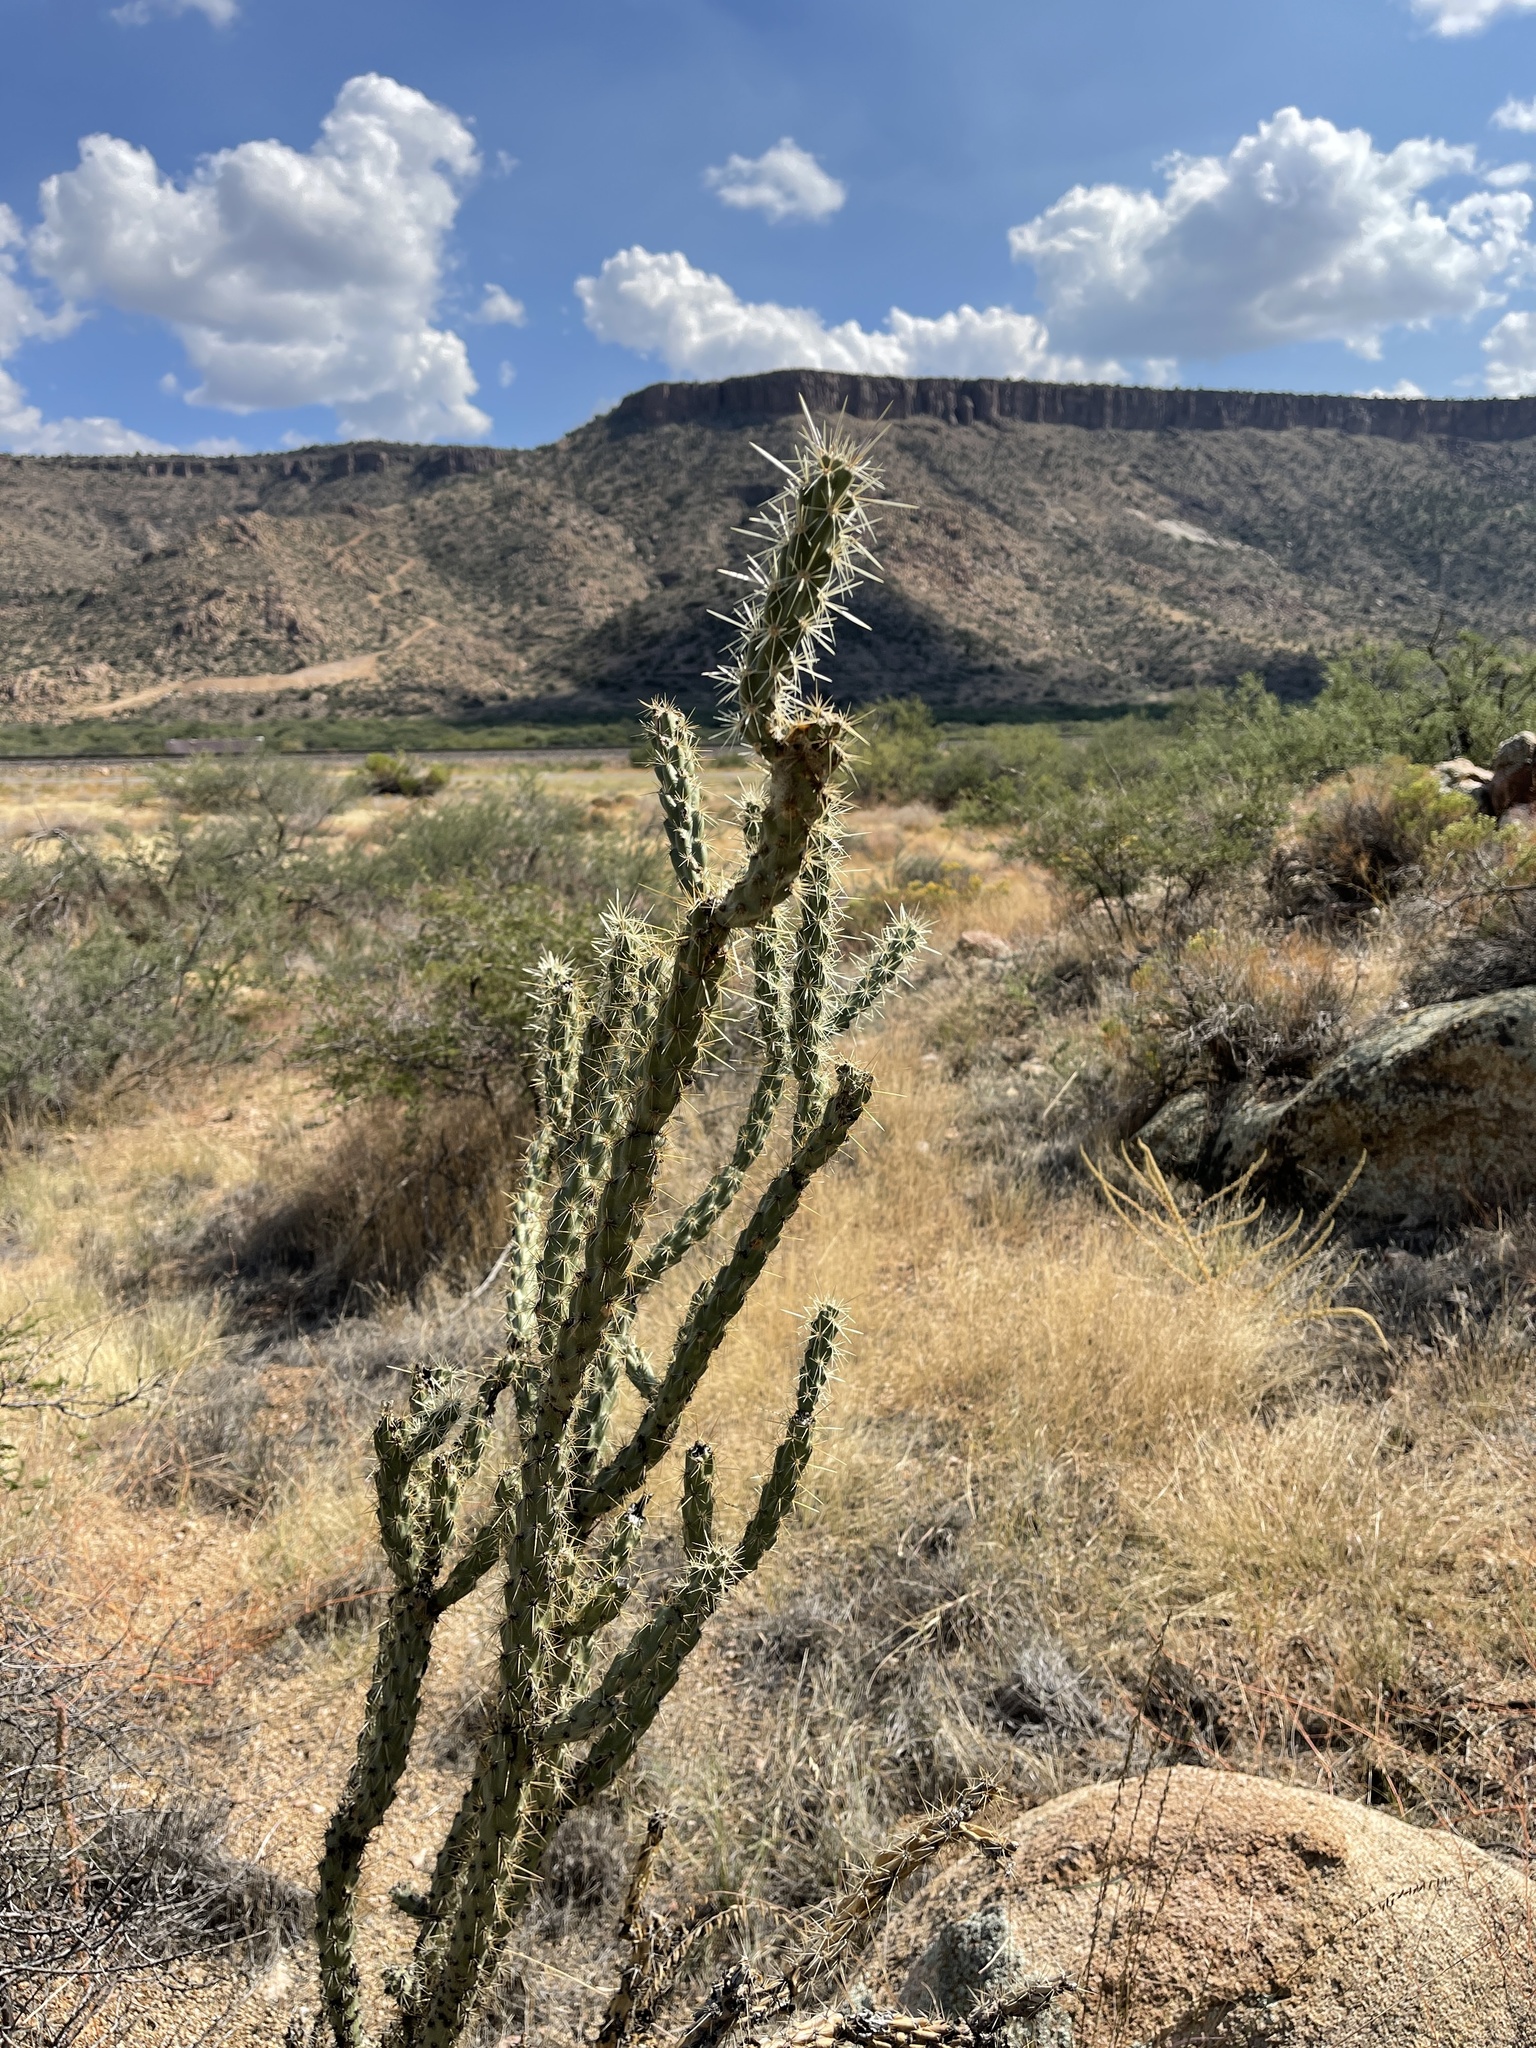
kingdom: Plantae
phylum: Tracheophyta
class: Magnoliopsida
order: Caryophyllales
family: Cactaceae
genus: Cylindropuntia
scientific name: Cylindropuntia acanthocarpa
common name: Buckhorn cholla
